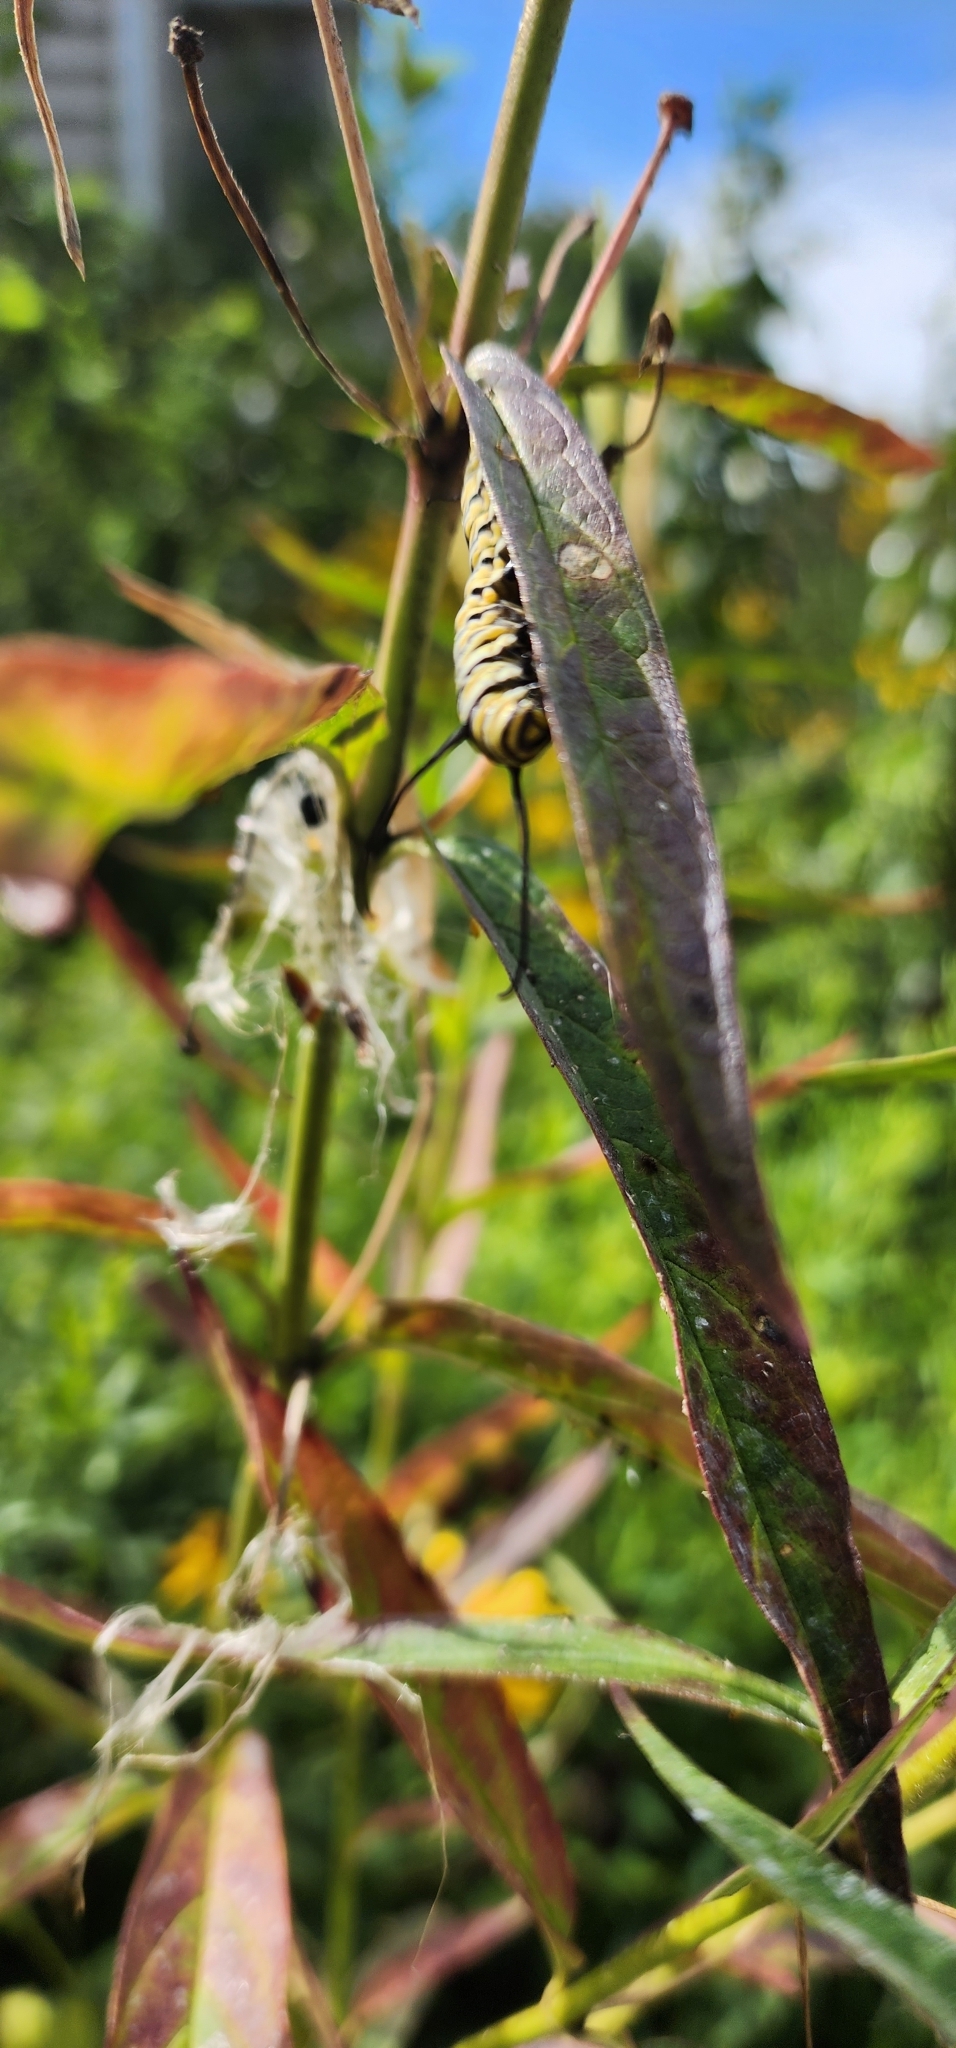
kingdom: Animalia
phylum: Arthropoda
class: Insecta
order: Lepidoptera
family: Nymphalidae
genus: Danaus
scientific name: Danaus plexippus
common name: Monarch
